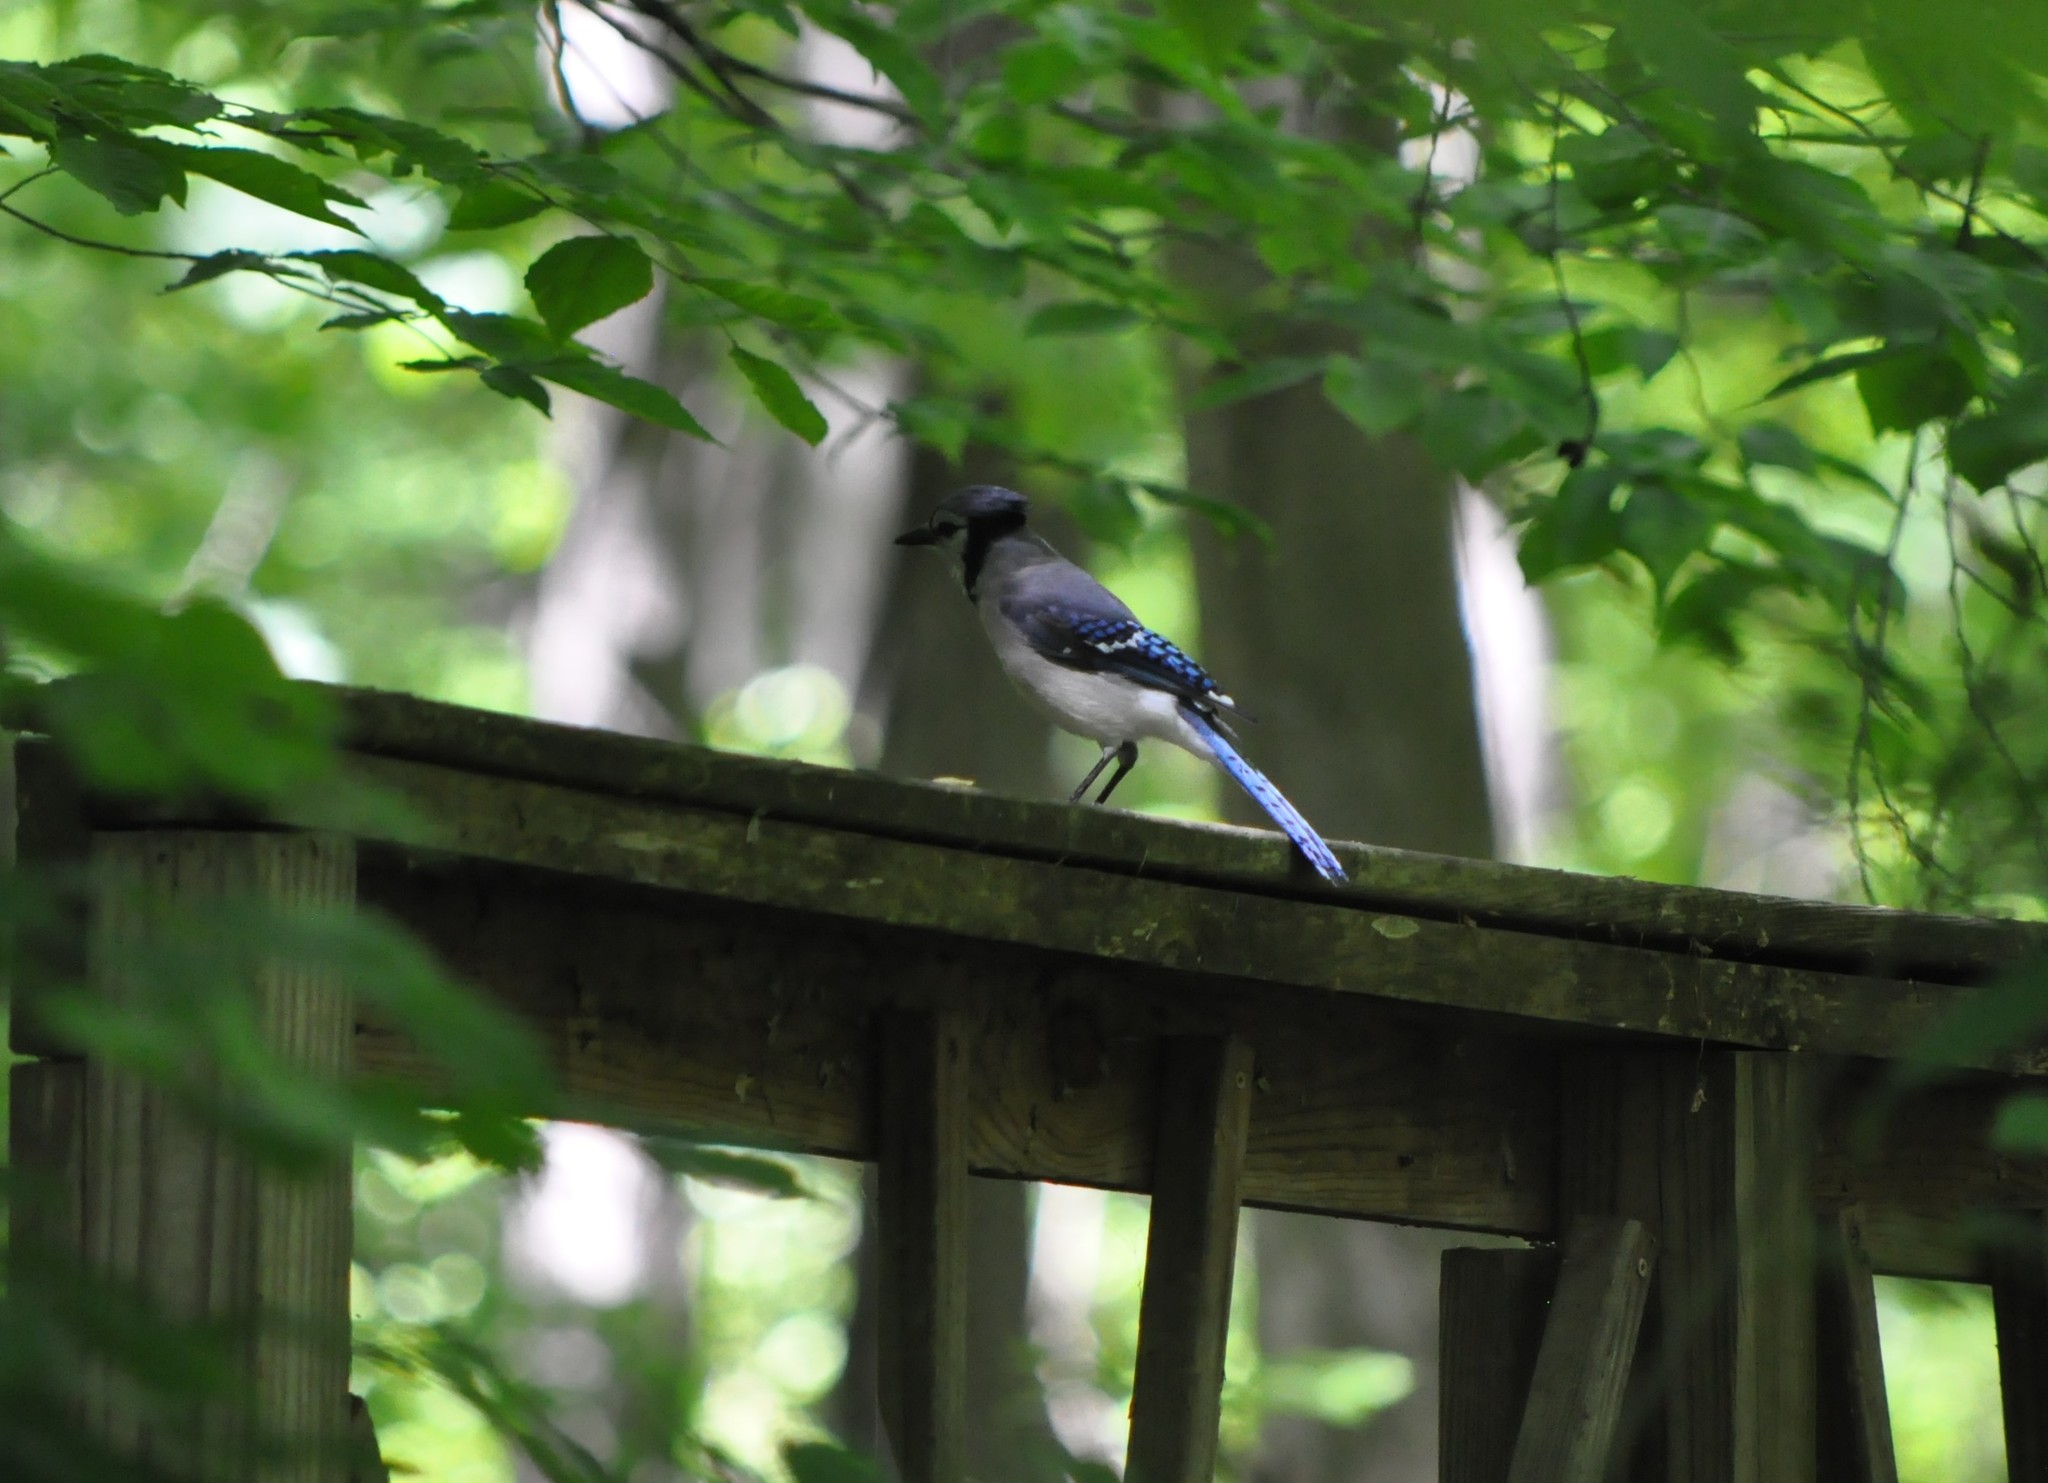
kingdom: Animalia
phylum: Chordata
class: Aves
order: Passeriformes
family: Corvidae
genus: Cyanocitta
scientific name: Cyanocitta cristata
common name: Blue jay
